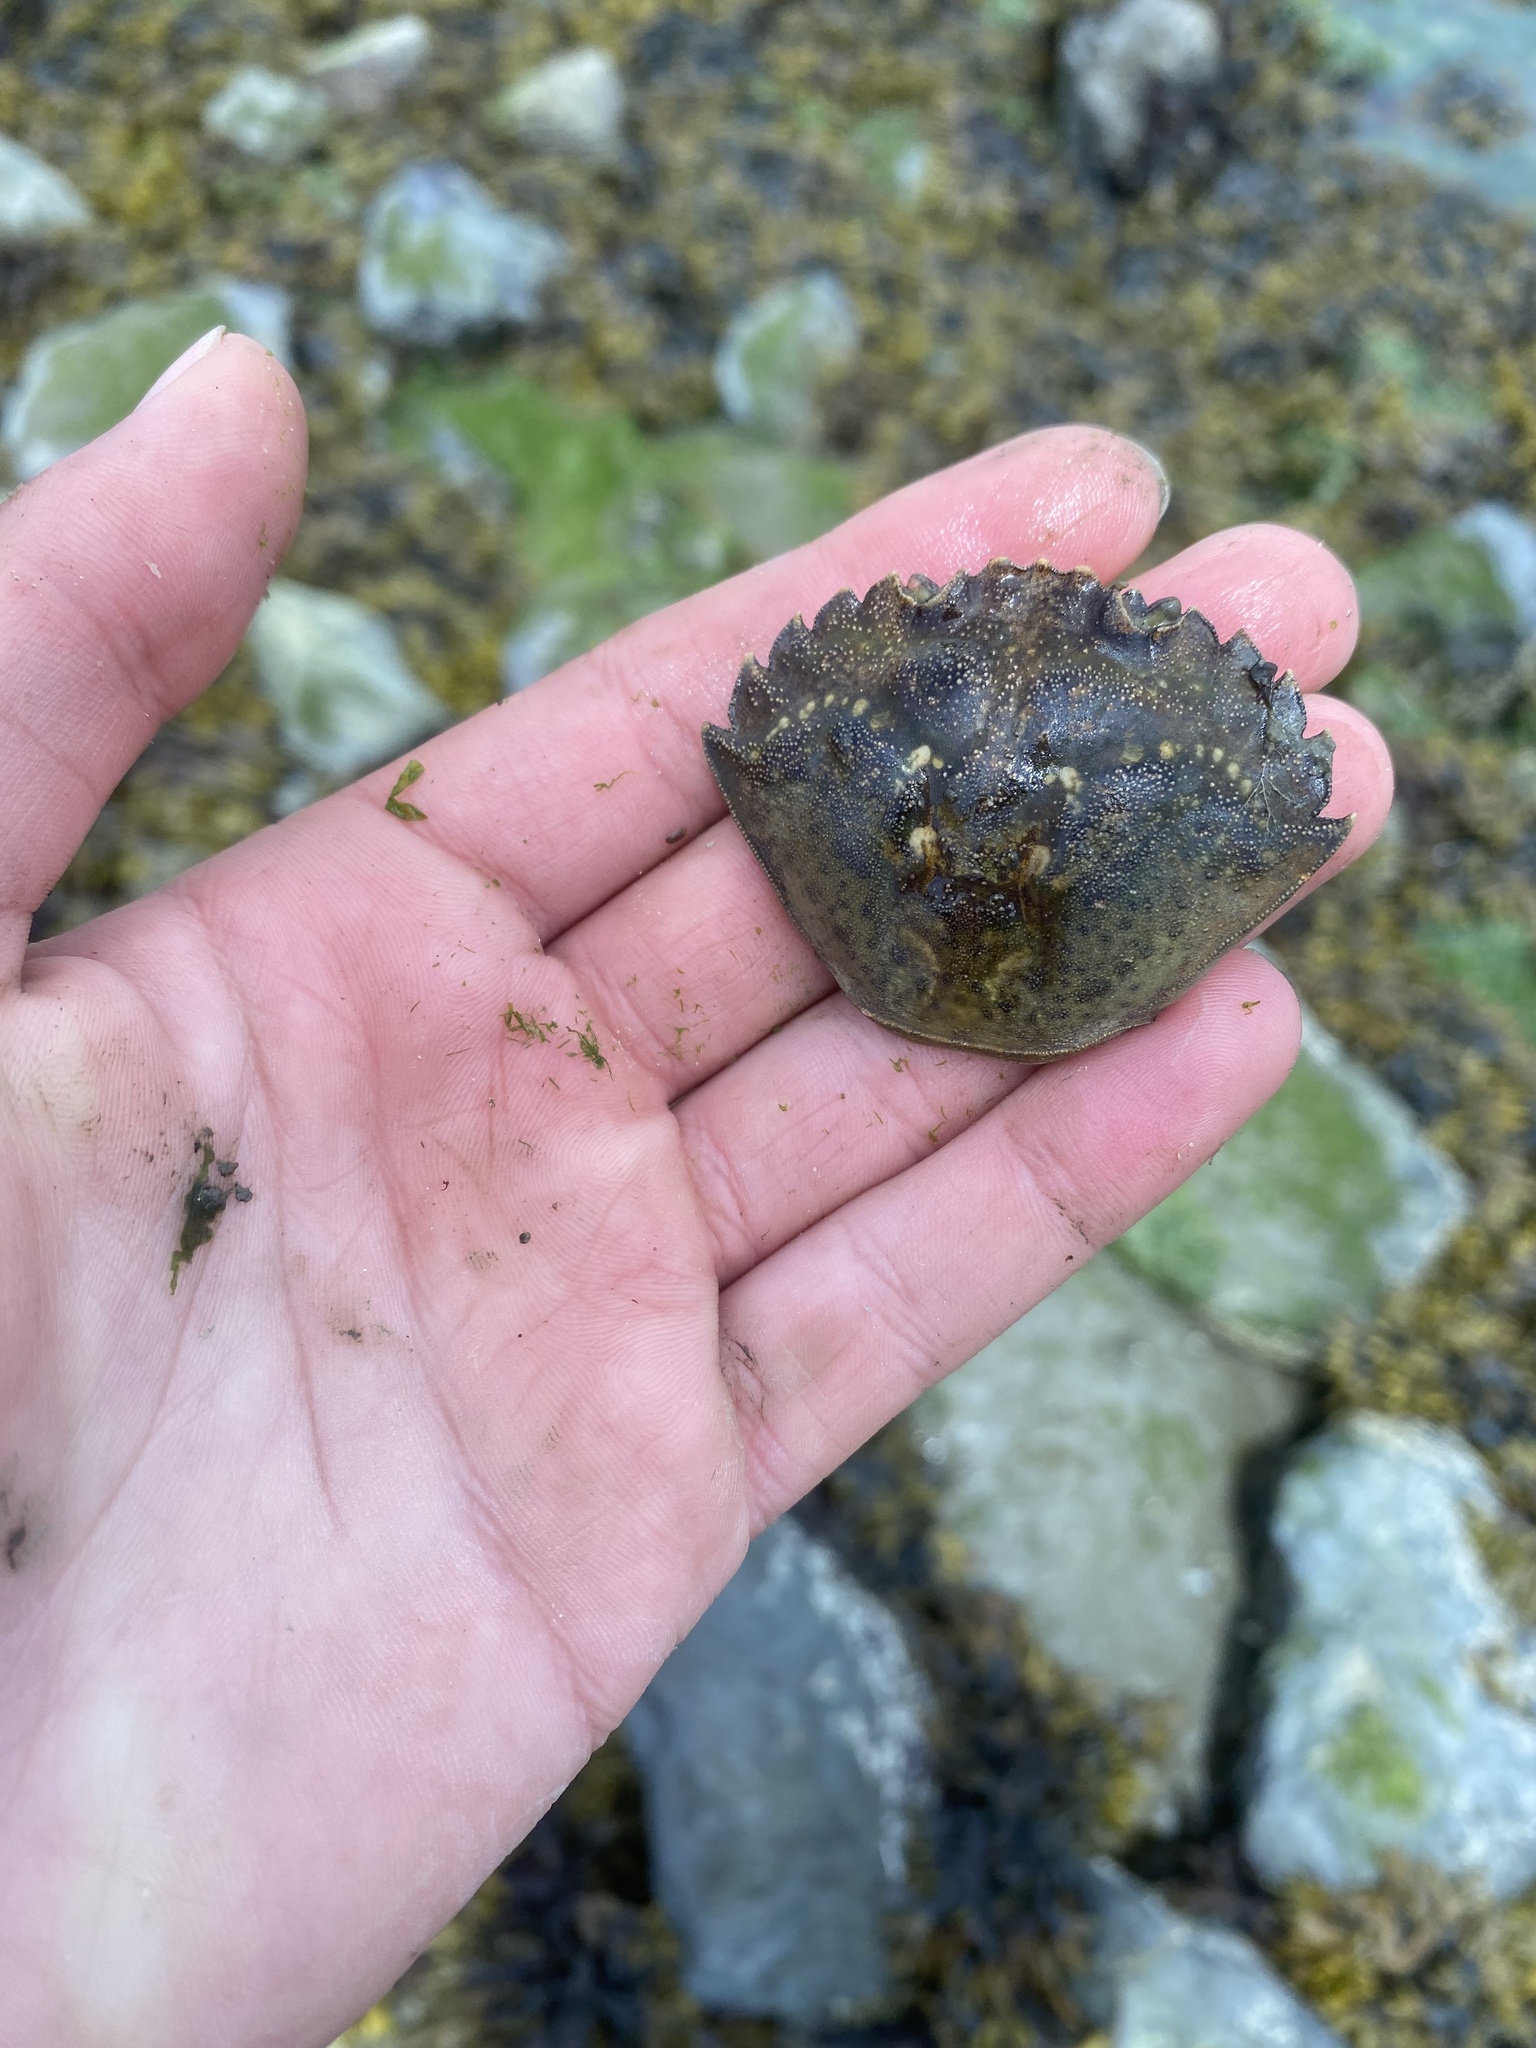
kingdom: Animalia
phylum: Arthropoda
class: Malacostraca
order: Decapoda
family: Carcinidae
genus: Carcinus
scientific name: Carcinus maenas
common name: European green crab
